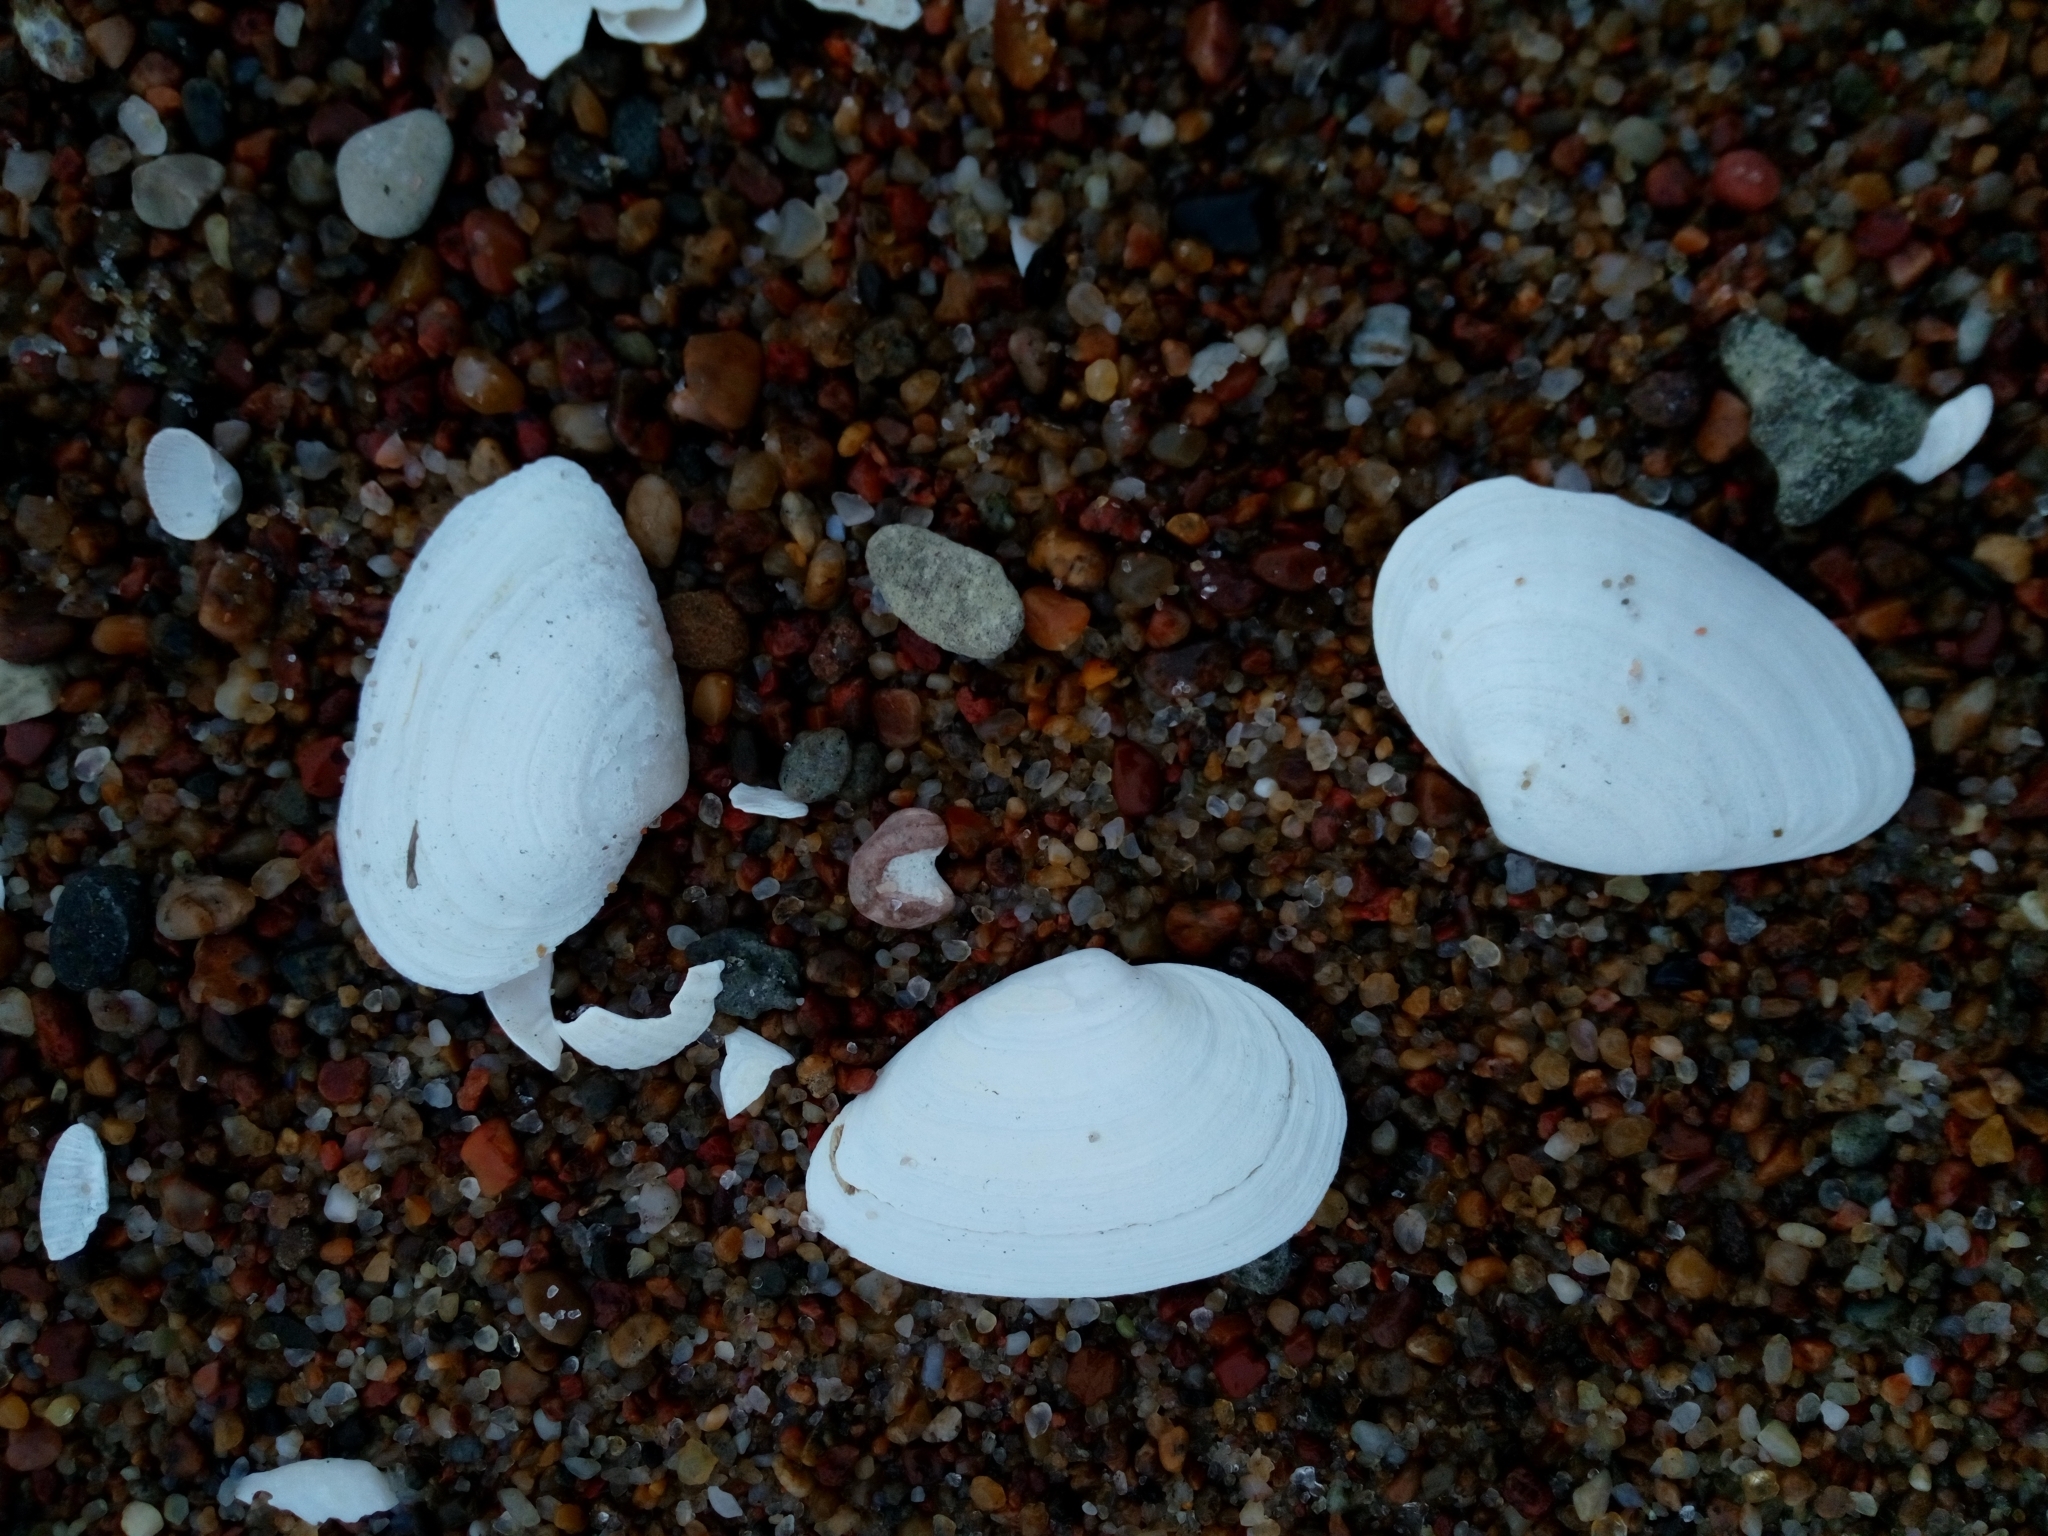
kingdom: Animalia
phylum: Mollusca
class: Bivalvia
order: Myida
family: Myidae
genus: Mya
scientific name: Mya arenaria
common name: Soft-shelled clam
